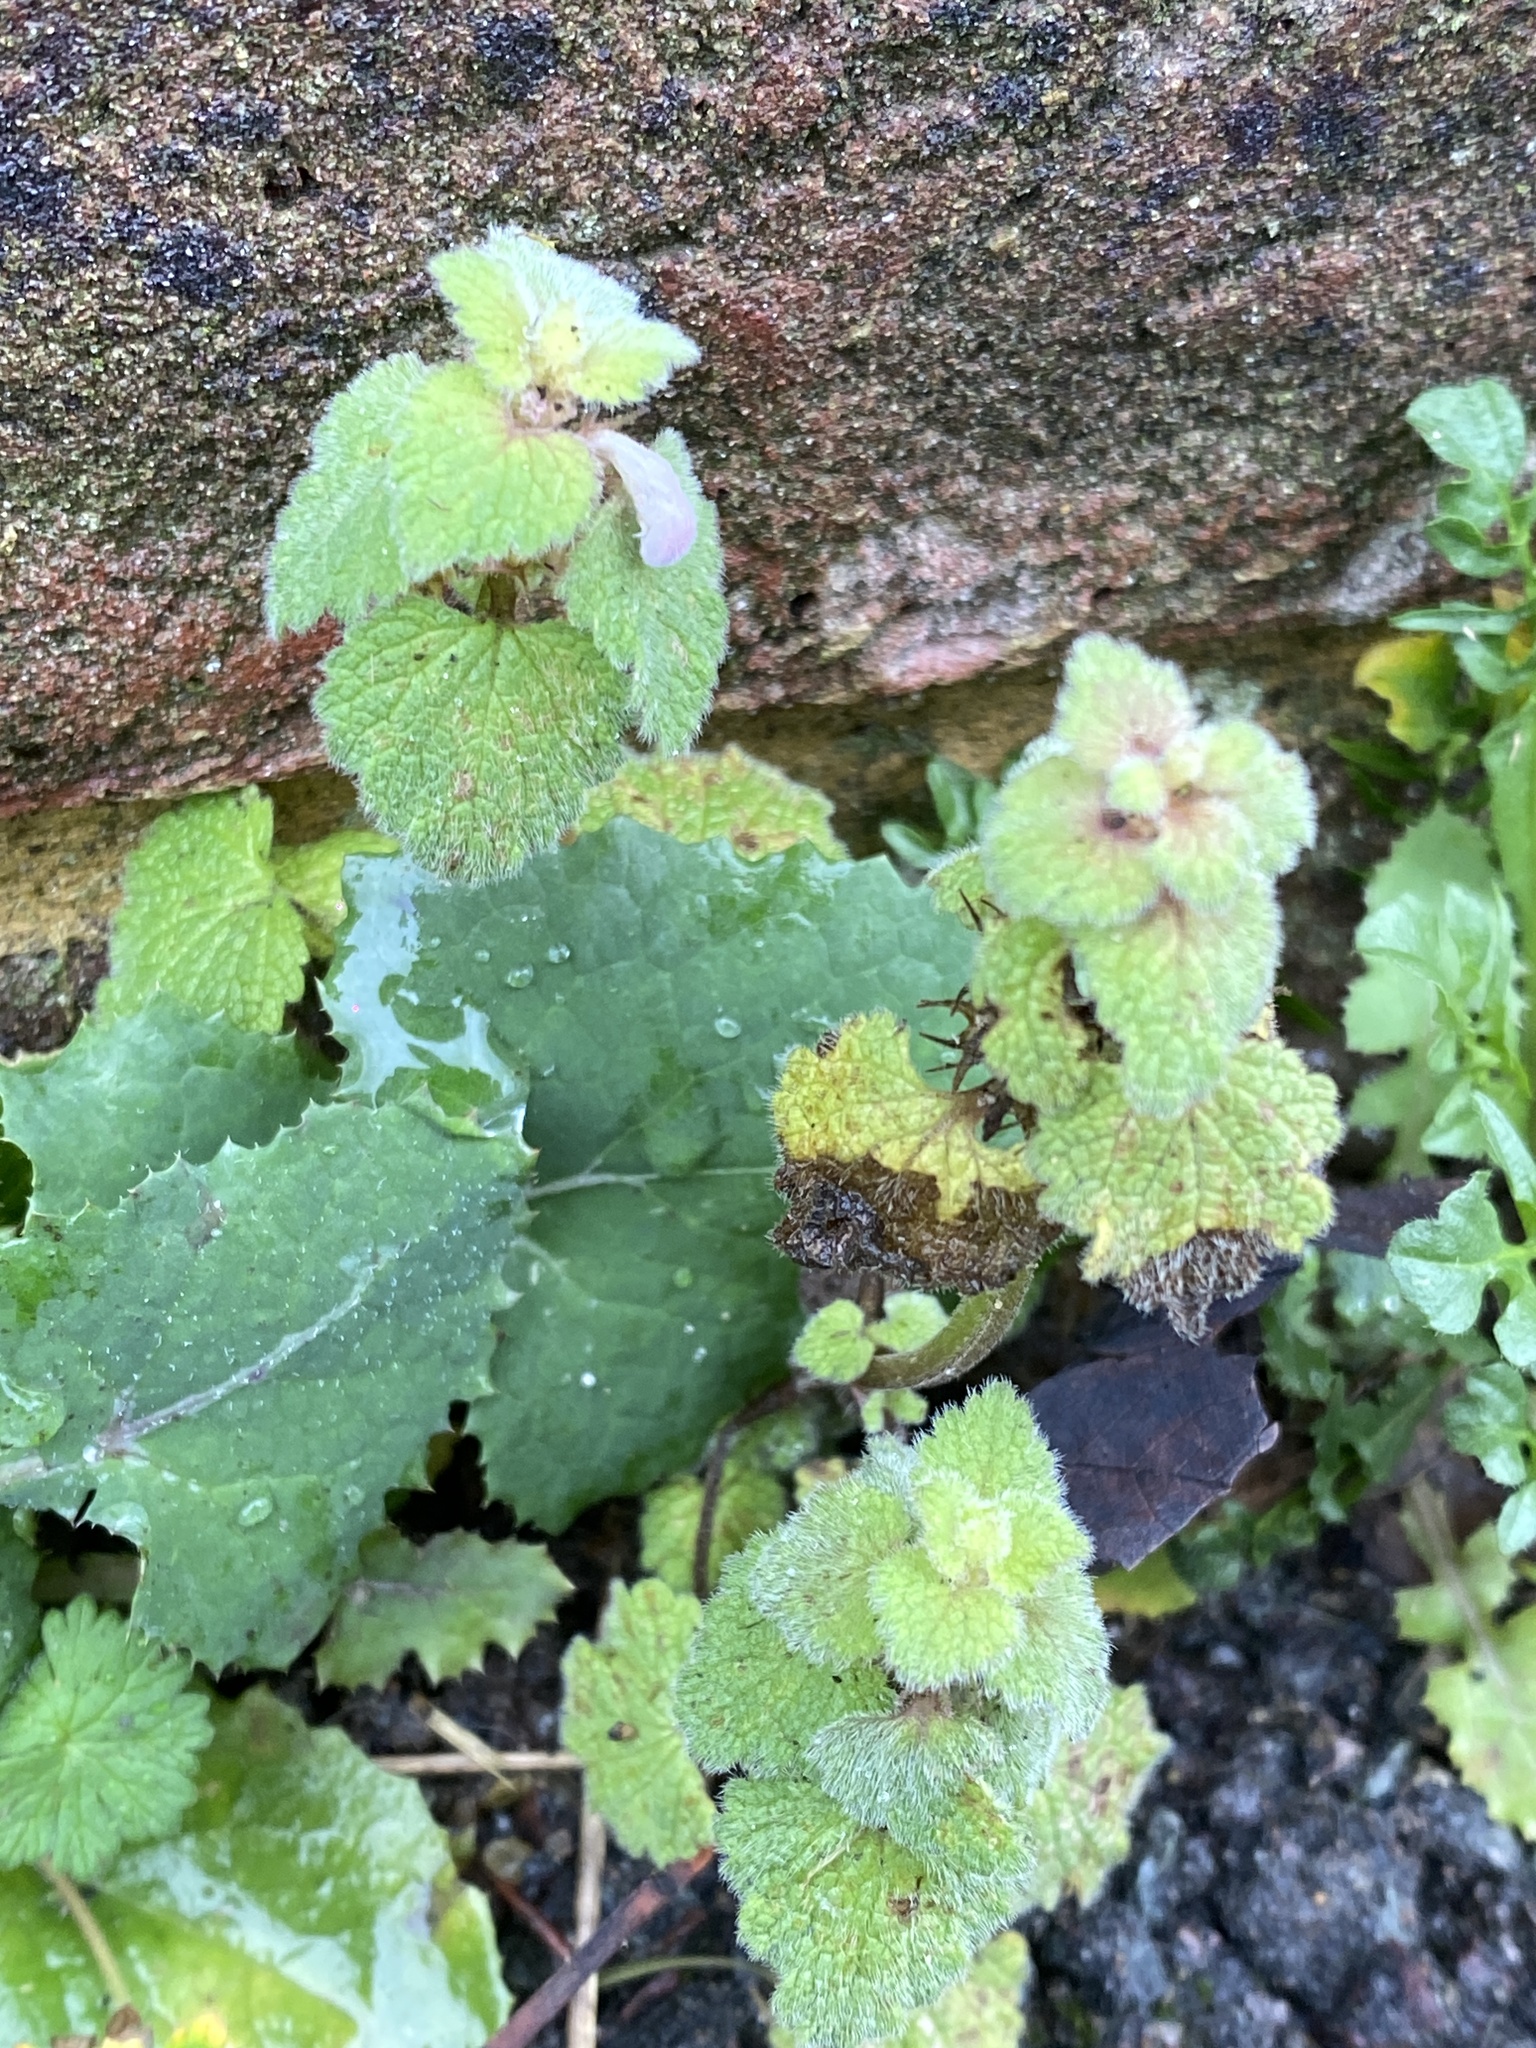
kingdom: Plantae
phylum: Tracheophyta
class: Magnoliopsida
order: Lamiales
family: Lamiaceae
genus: Lamium
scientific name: Lamium purpureum
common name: Red dead-nettle
